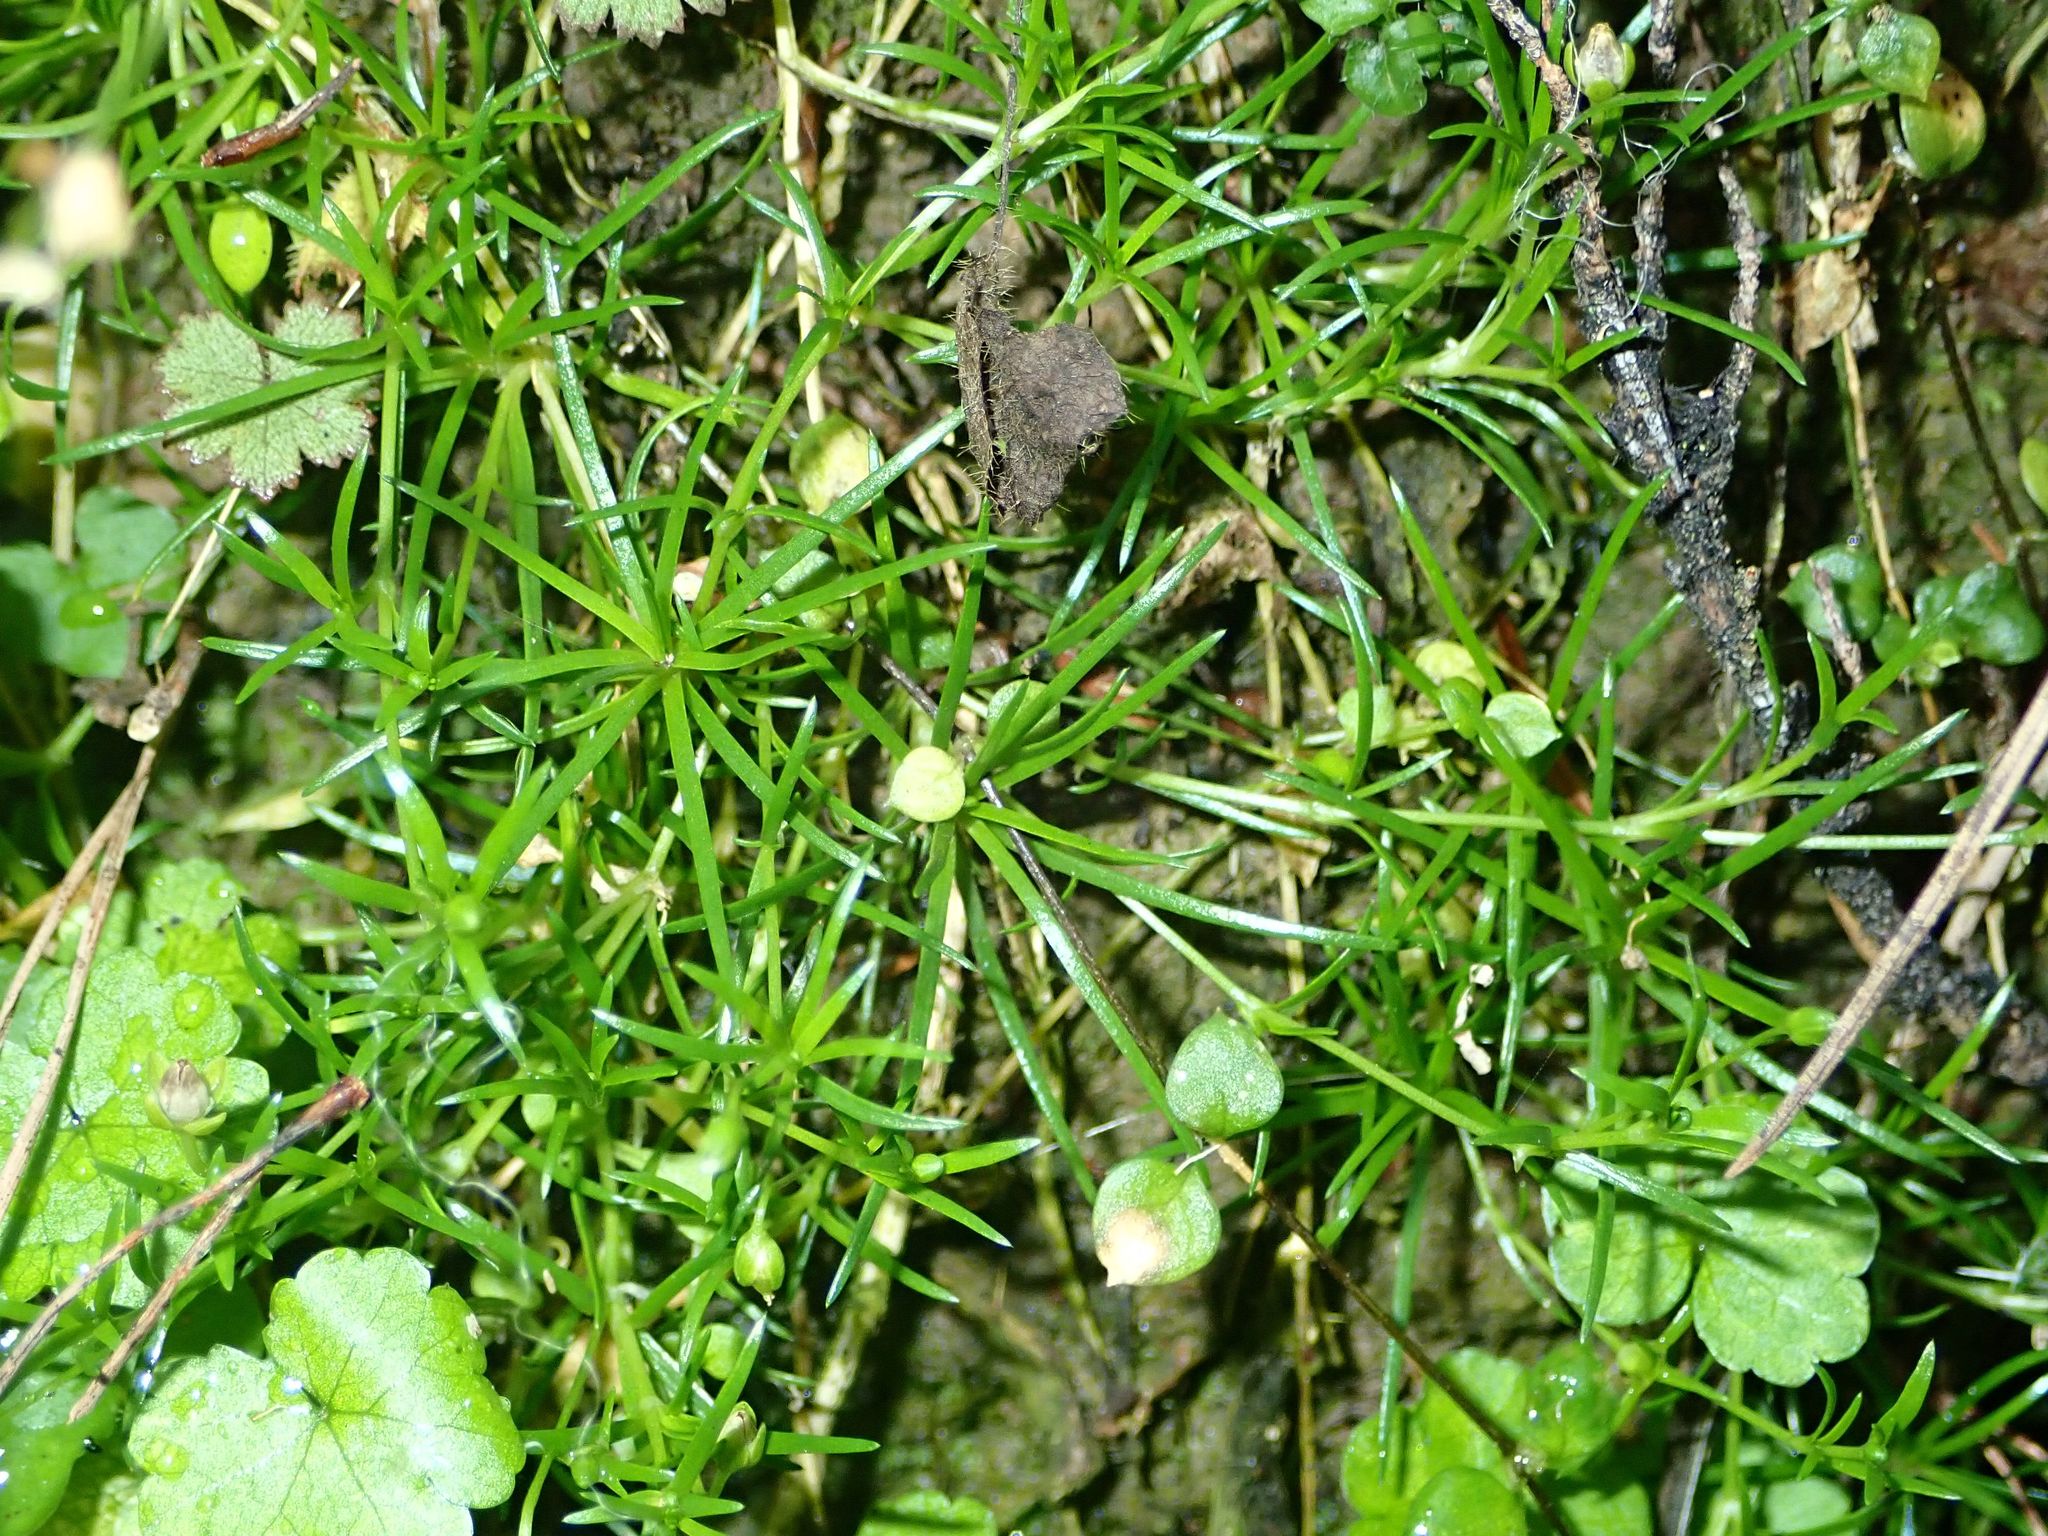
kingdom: Plantae
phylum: Tracheophyta
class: Magnoliopsida
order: Caryophyllales
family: Caryophyllaceae
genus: Sagina
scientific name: Sagina procumbens
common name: Procumbent pearlwort
